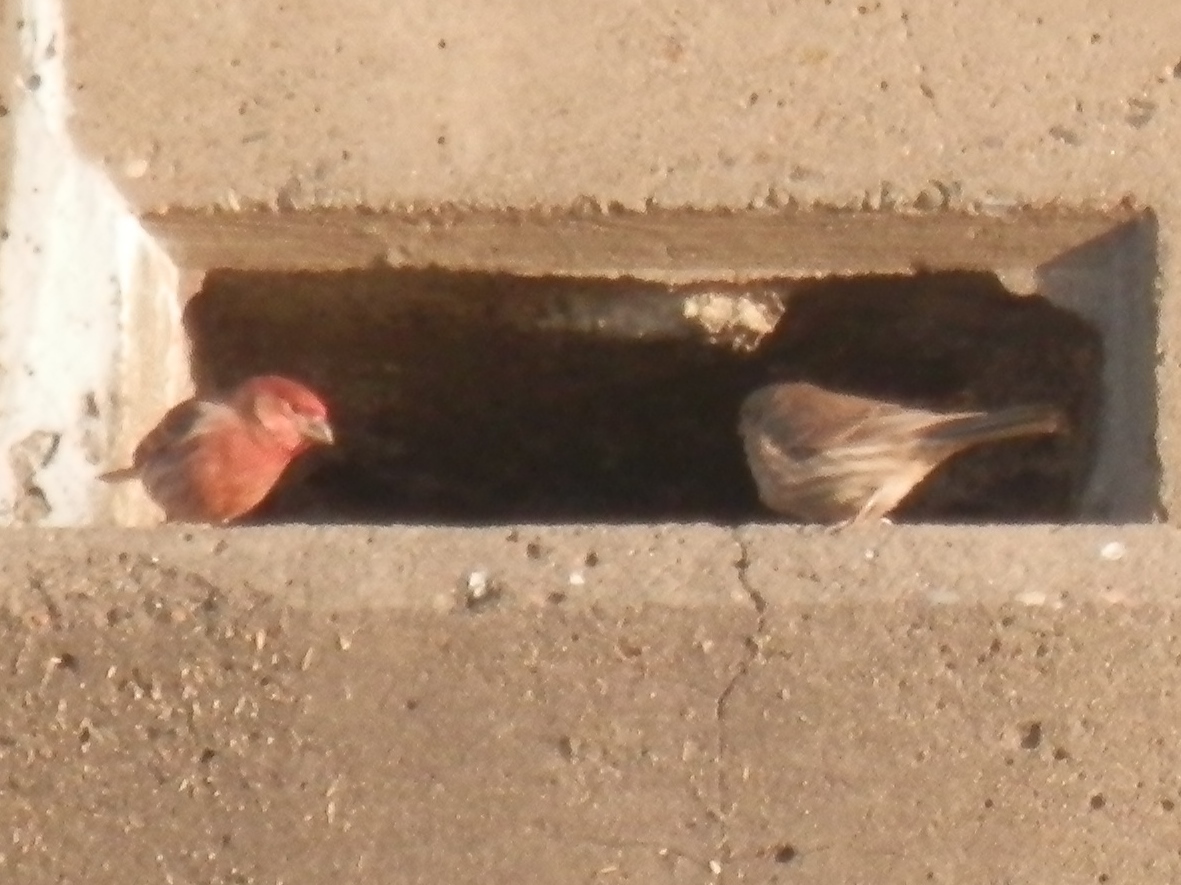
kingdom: Animalia
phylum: Chordata
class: Aves
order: Passeriformes
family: Fringillidae
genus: Haemorhous
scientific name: Haemorhous mexicanus
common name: House finch
